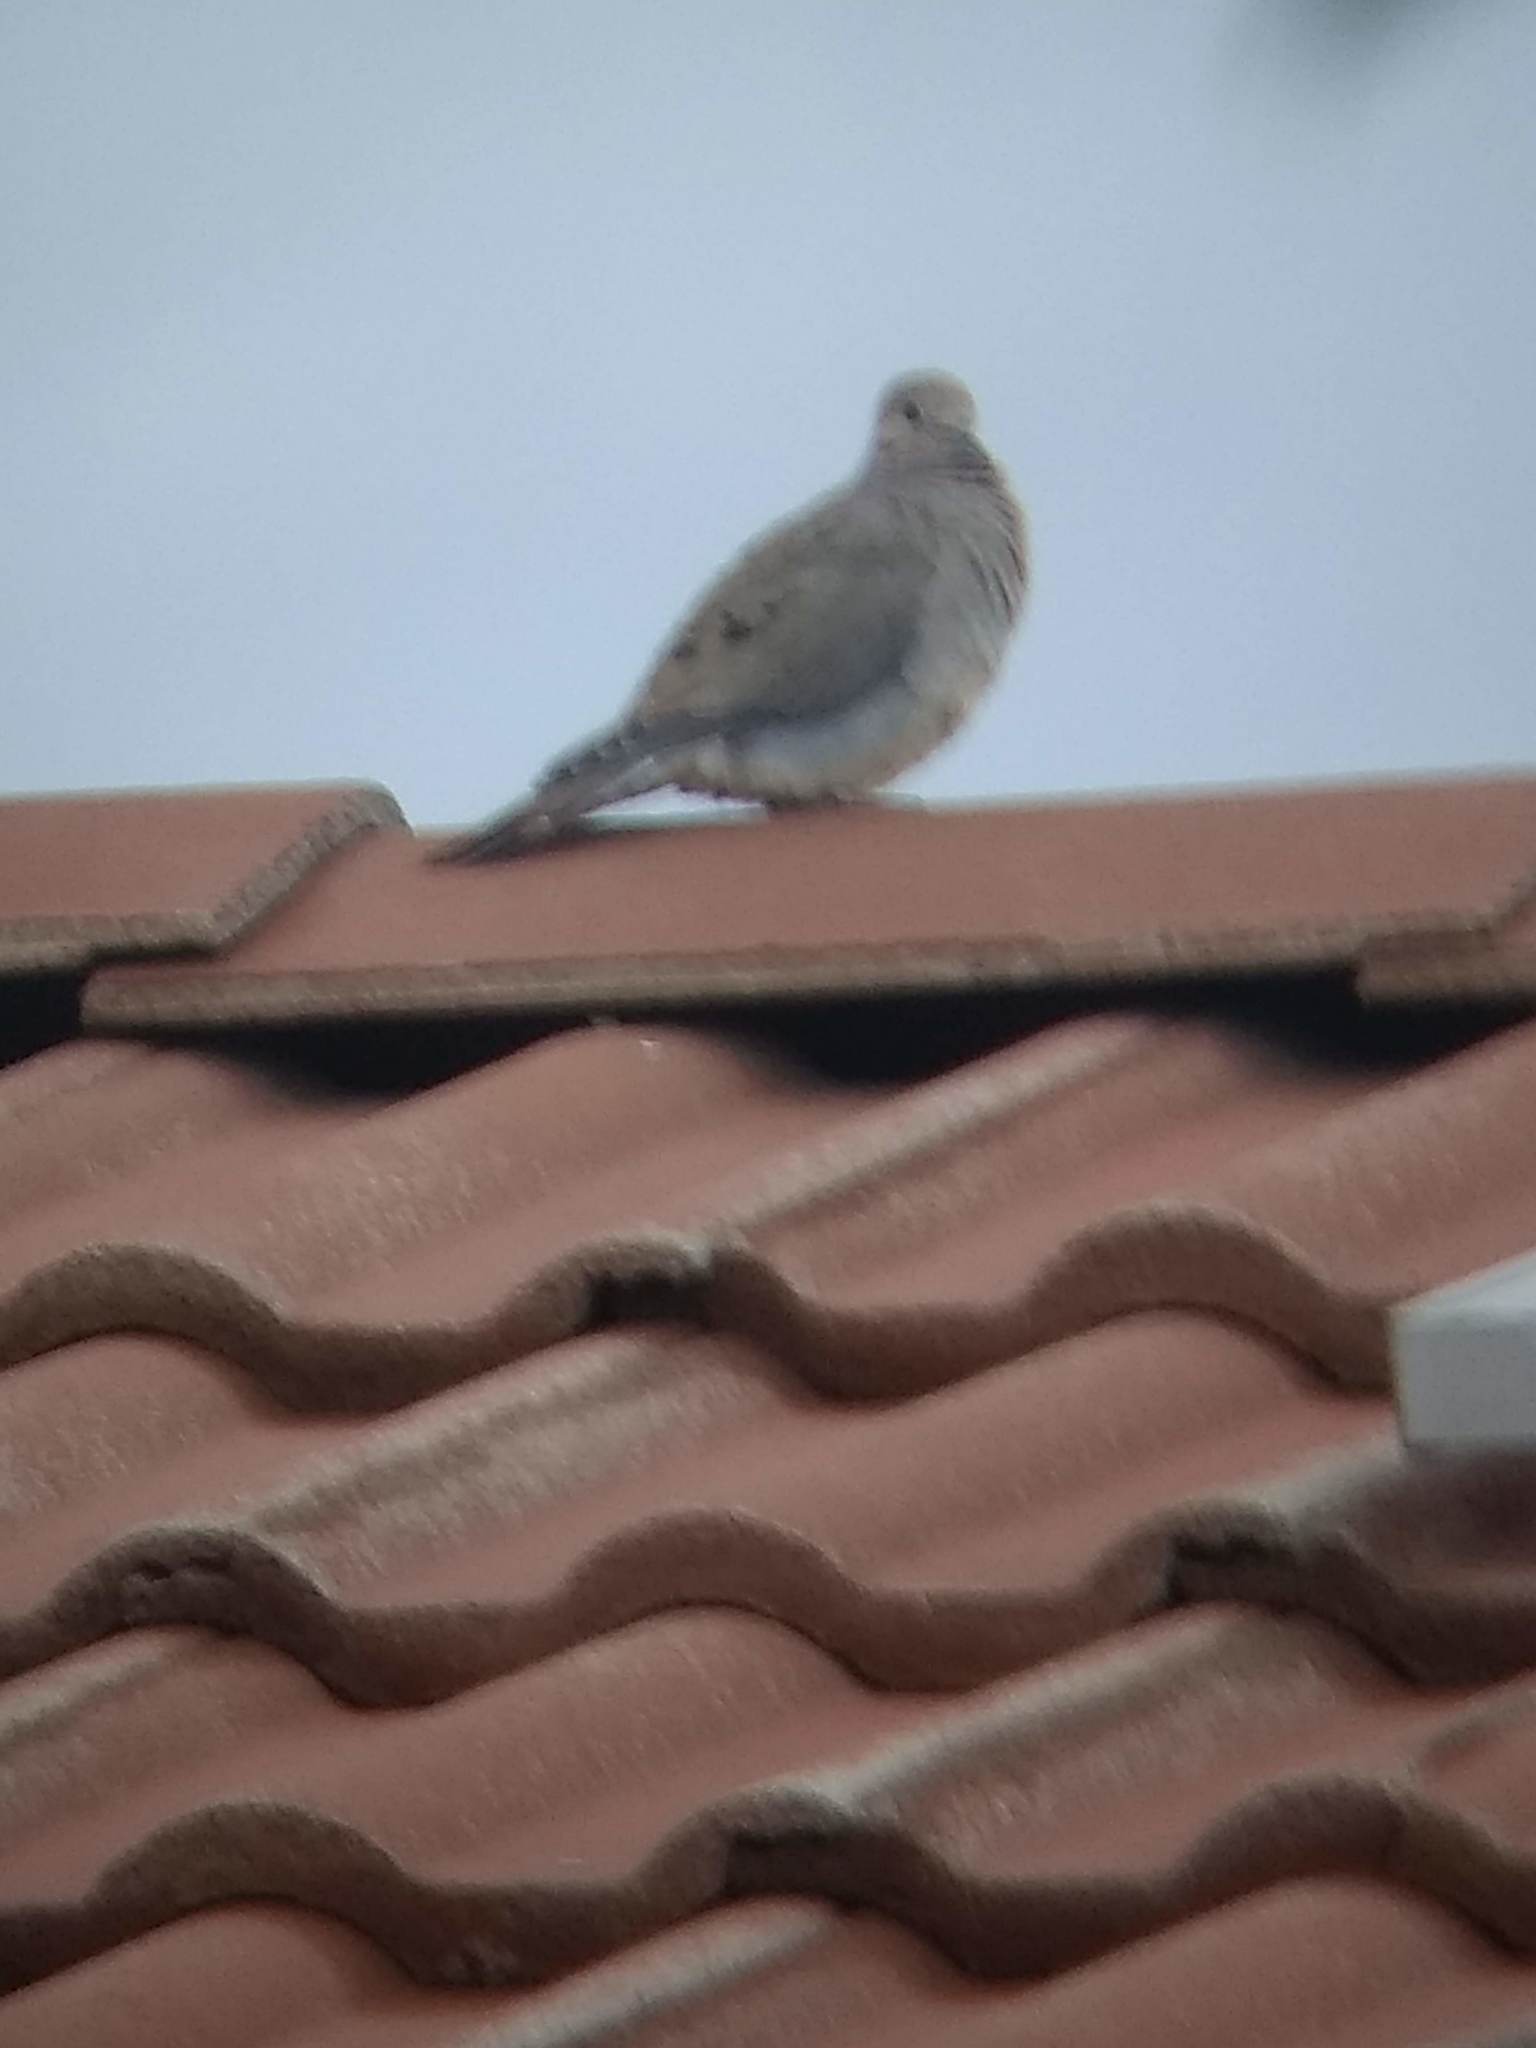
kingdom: Animalia
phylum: Chordata
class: Aves
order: Columbiformes
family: Columbidae
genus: Zenaida
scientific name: Zenaida macroura
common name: Mourning dove
